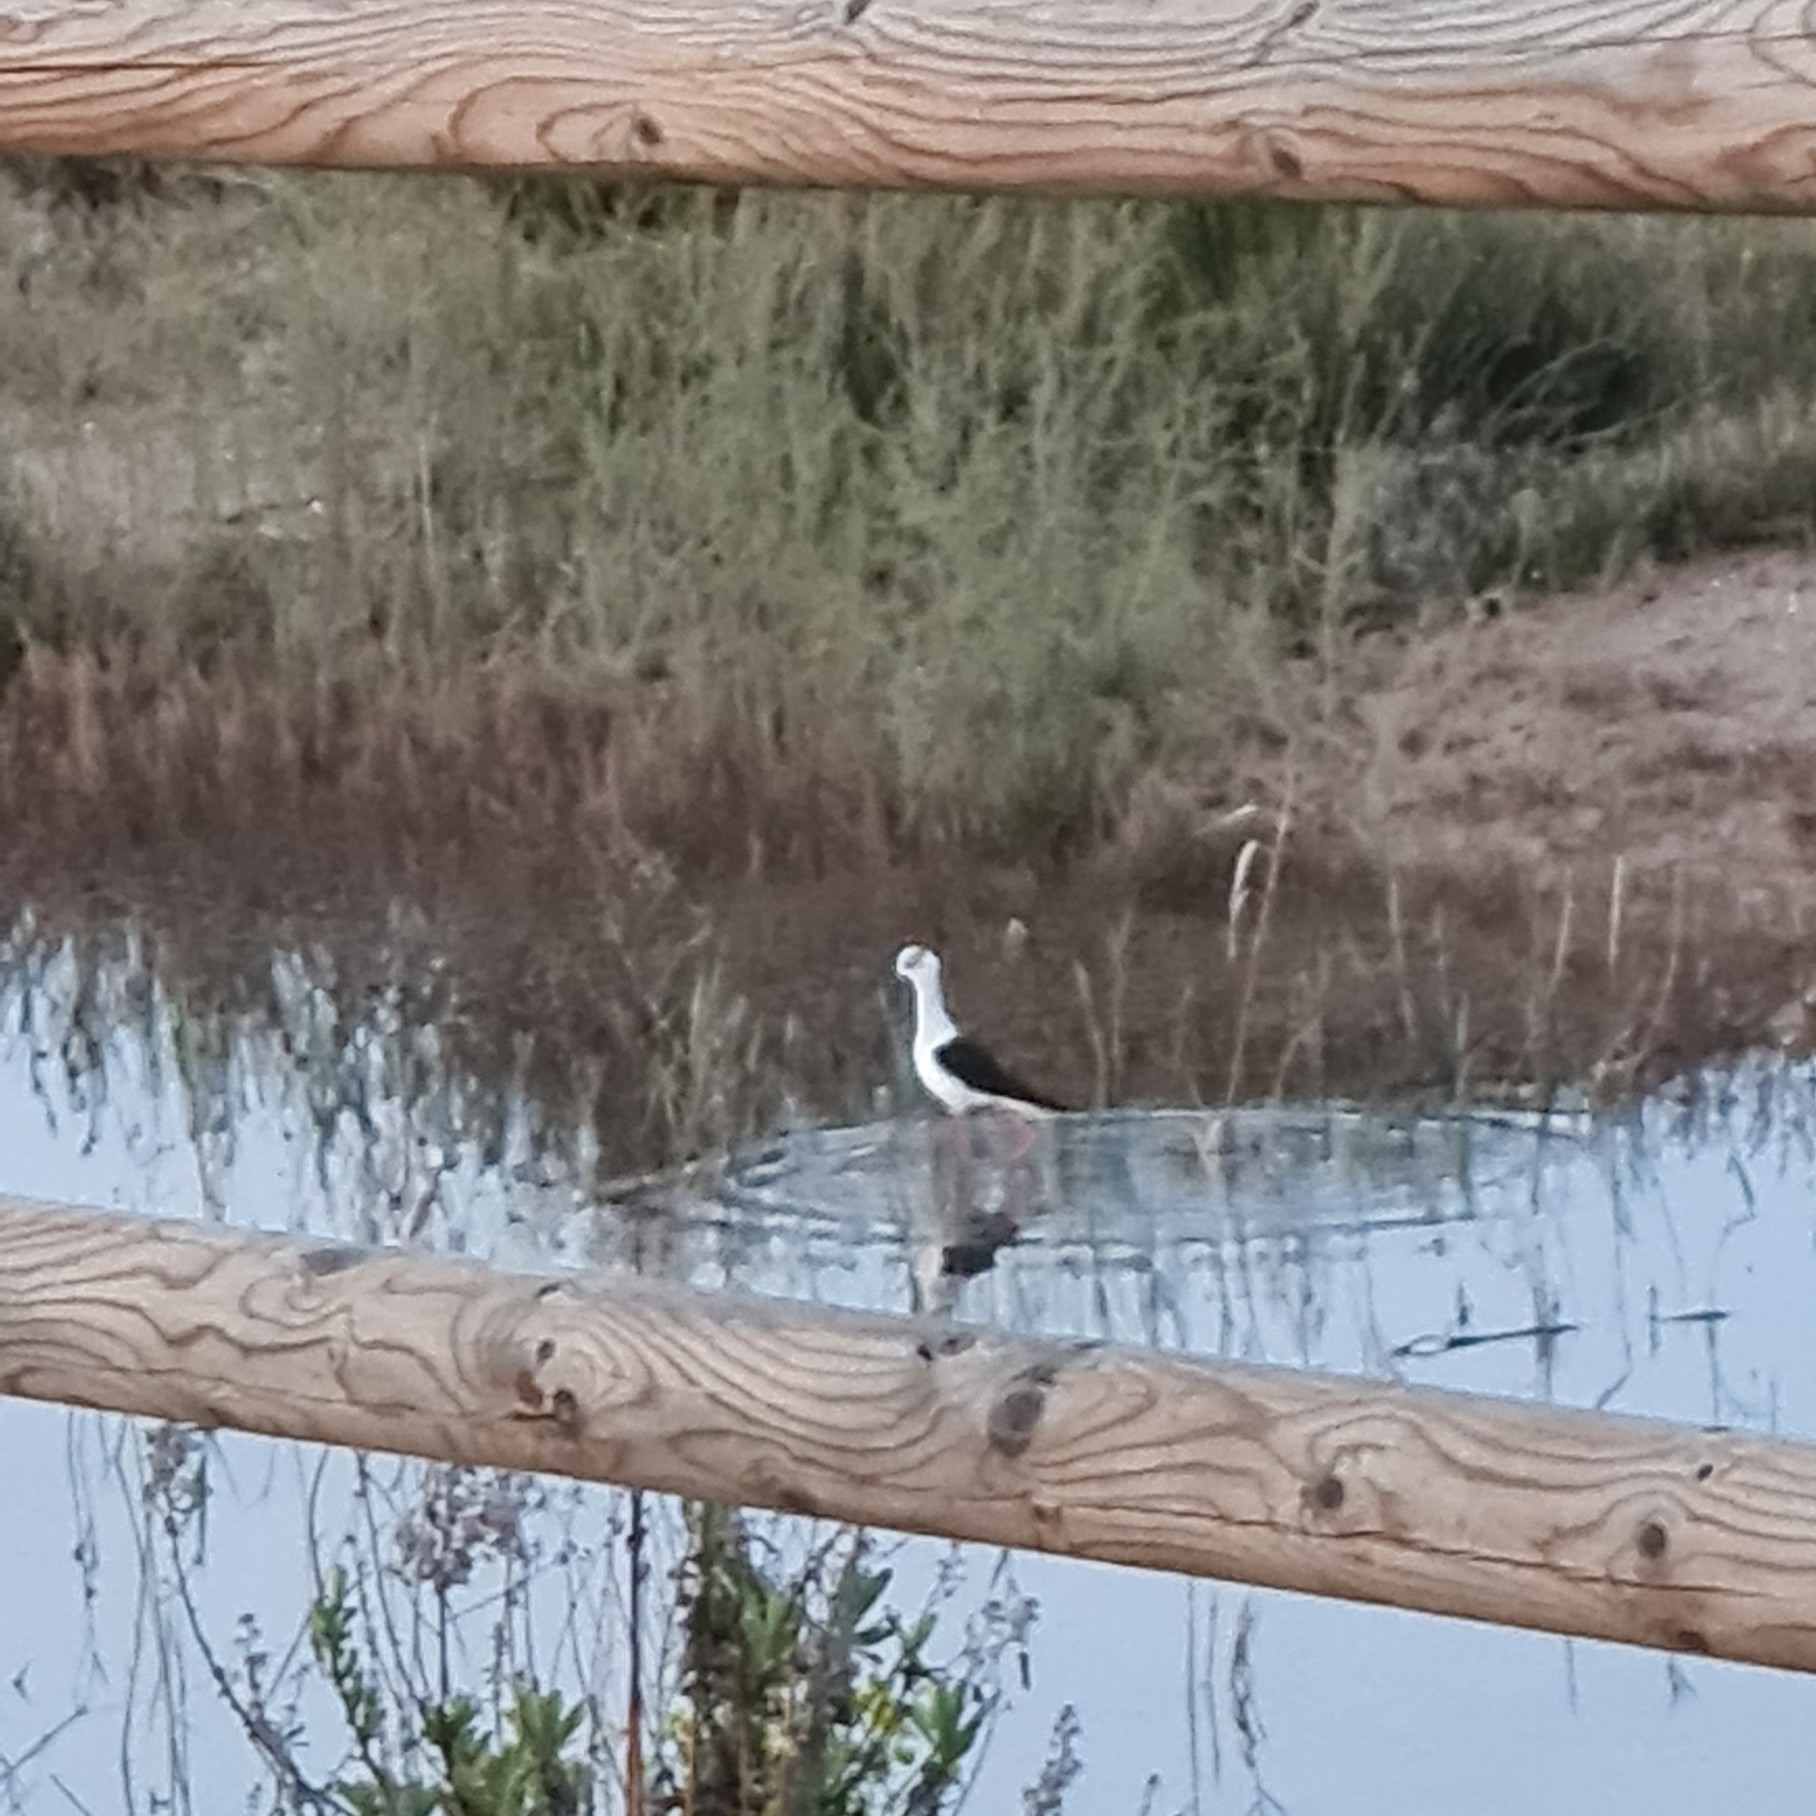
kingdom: Animalia
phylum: Chordata
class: Aves
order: Charadriiformes
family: Recurvirostridae
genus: Himantopus
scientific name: Himantopus himantopus
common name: Black-winged stilt
